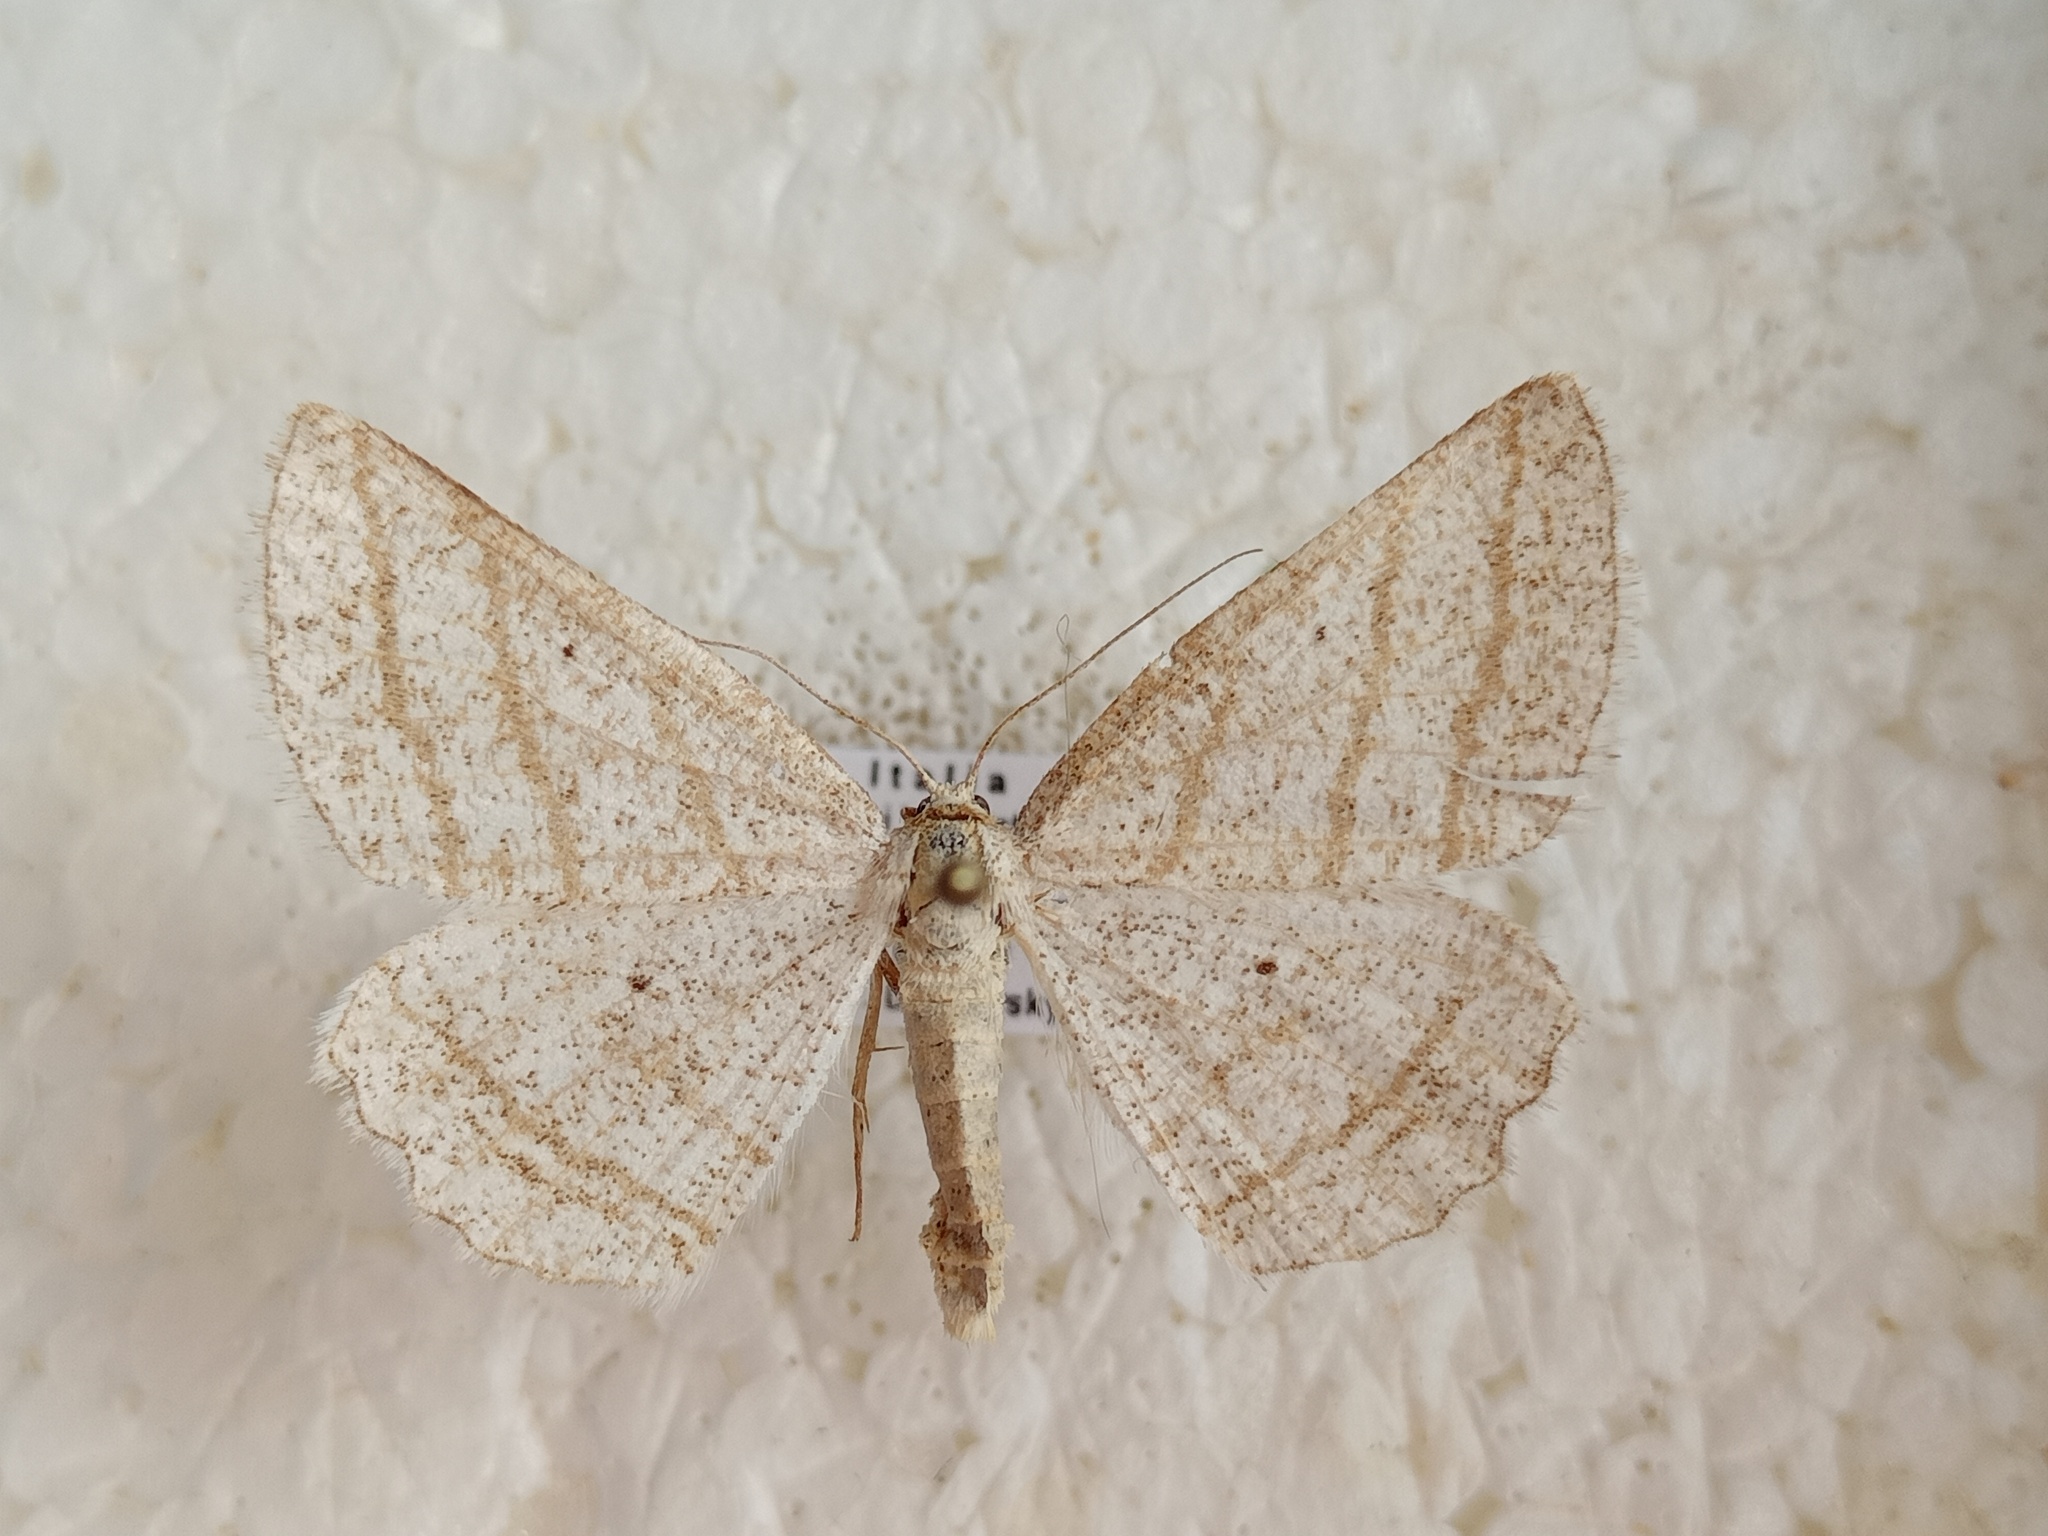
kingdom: Animalia
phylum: Arthropoda
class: Insecta
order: Lepidoptera
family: Geometridae
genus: Perconia
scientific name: Perconia strigillaria
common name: Grass wave
